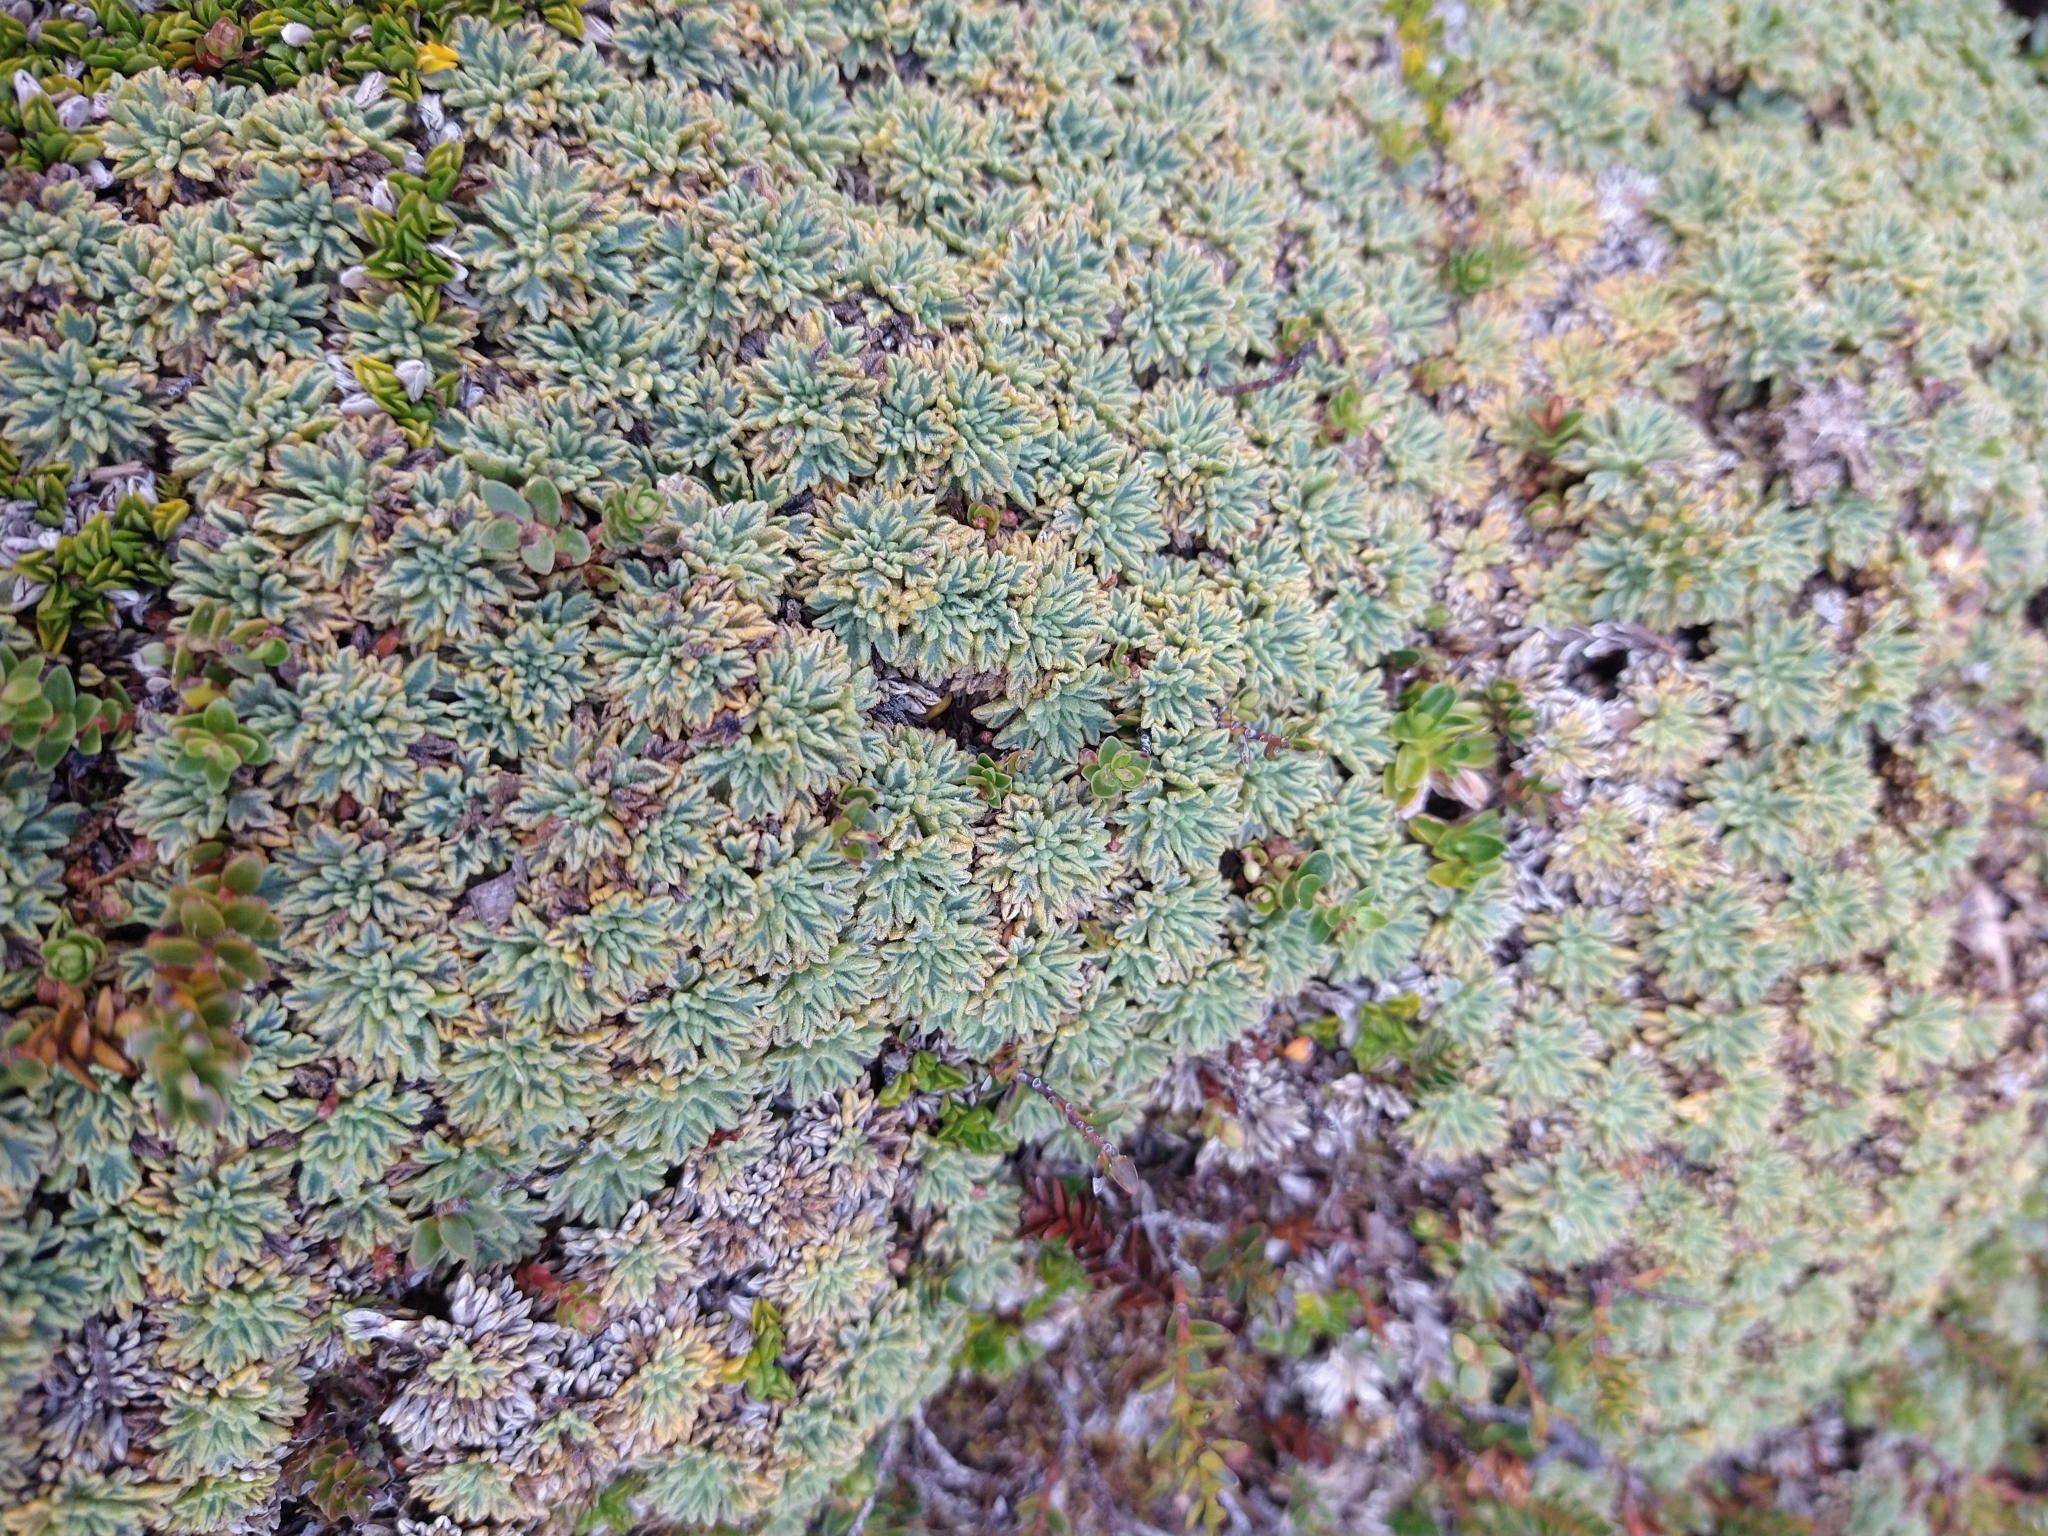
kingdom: Plantae
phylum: Tracheophyta
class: Magnoliopsida
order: Apiales
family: Apiaceae
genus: Bolax
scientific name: Bolax gummifera
